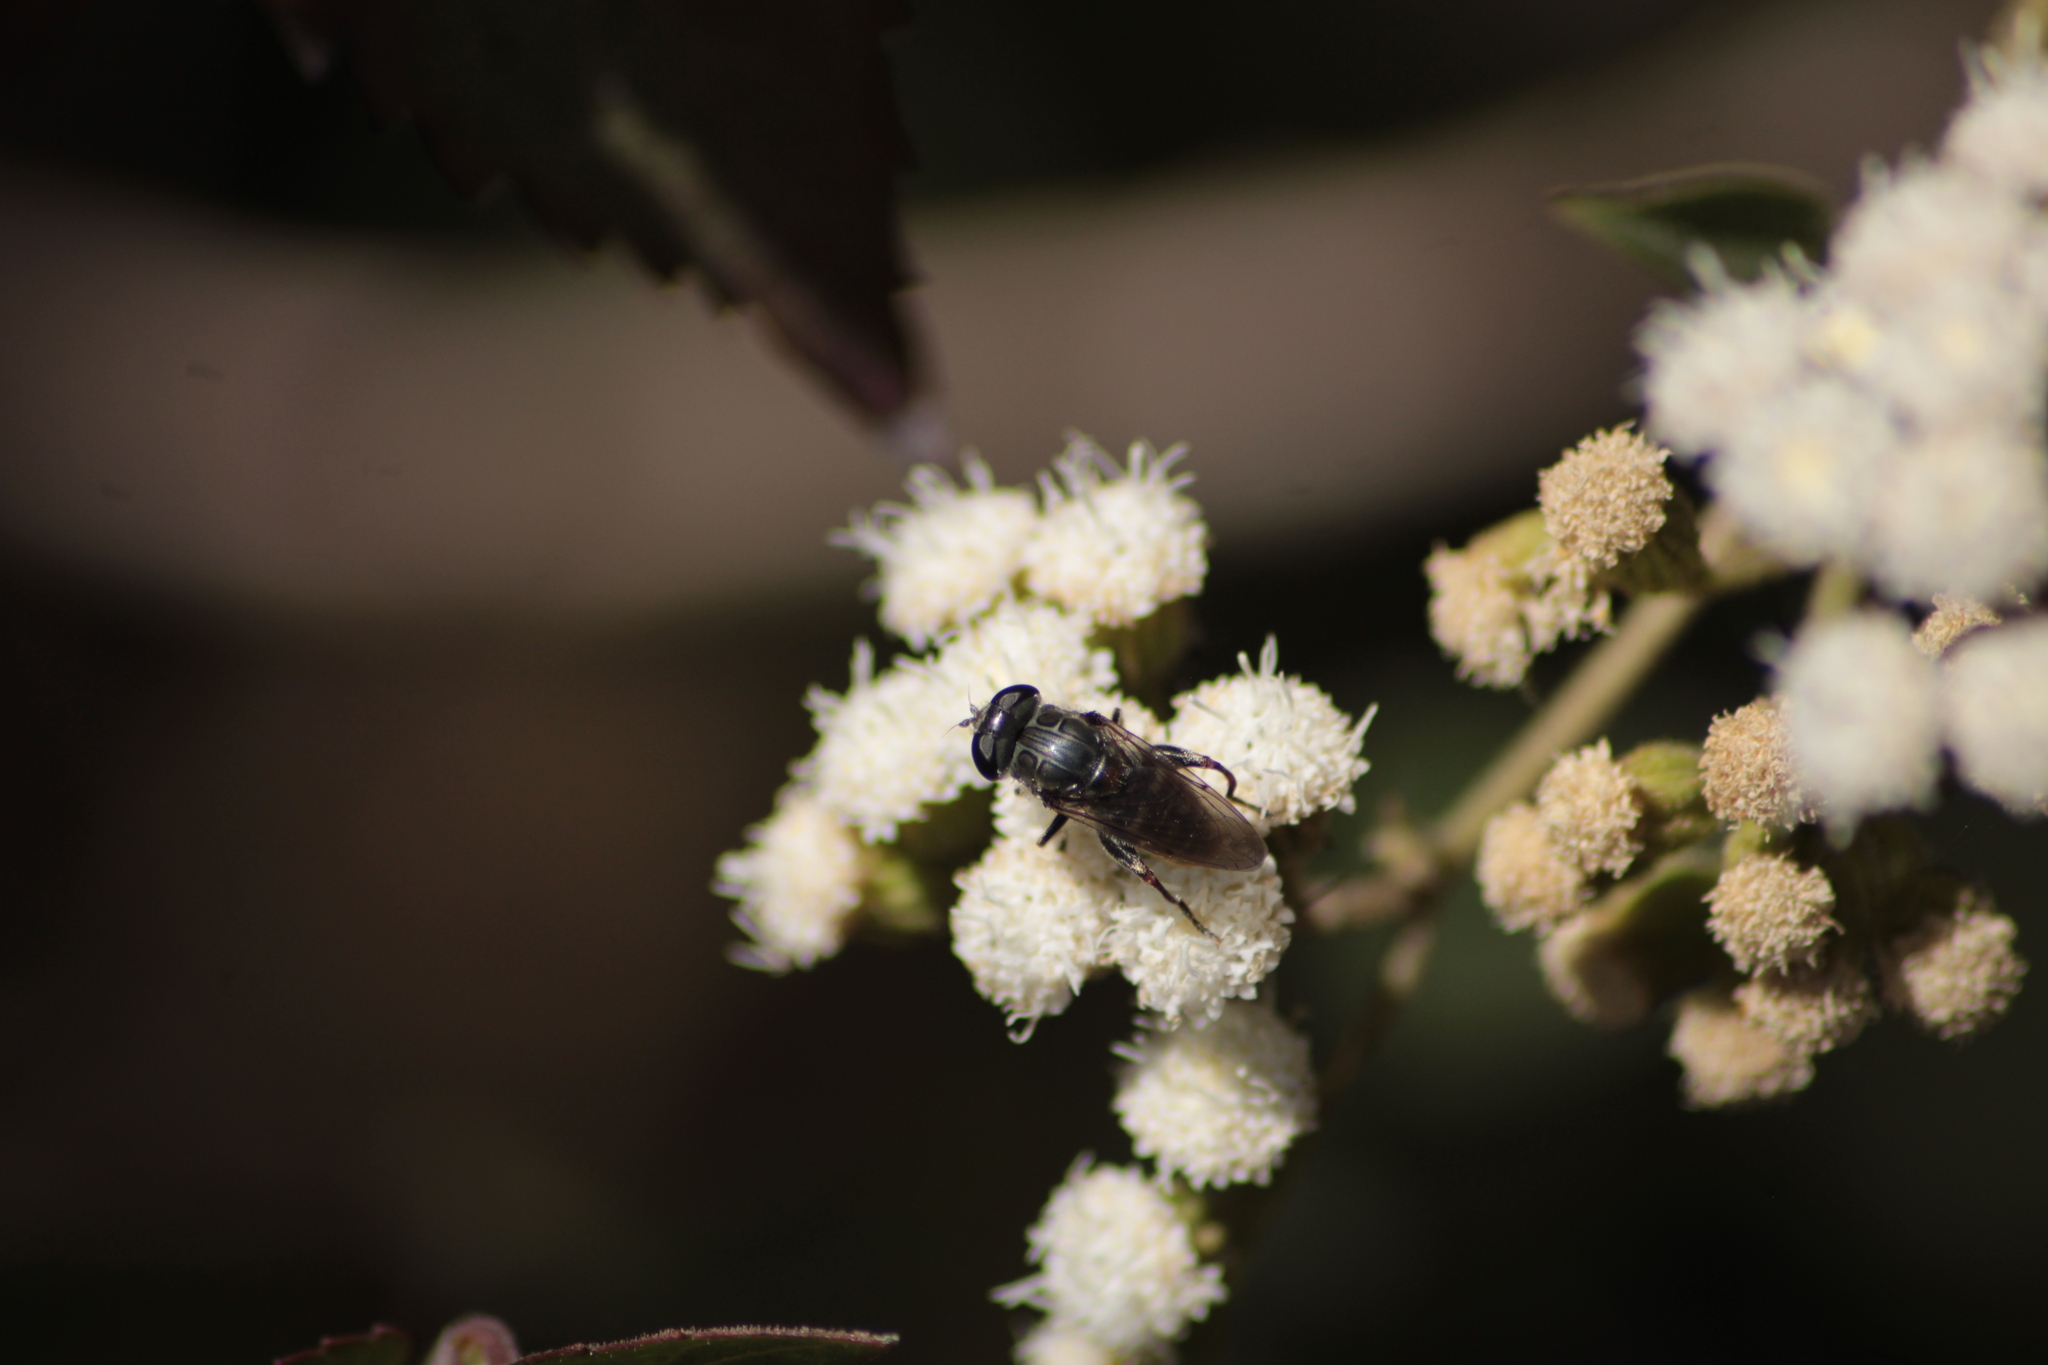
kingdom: Animalia
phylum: Arthropoda
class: Insecta
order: Diptera
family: Syrphidae
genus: Asemosyrphus
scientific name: Asemosyrphus
